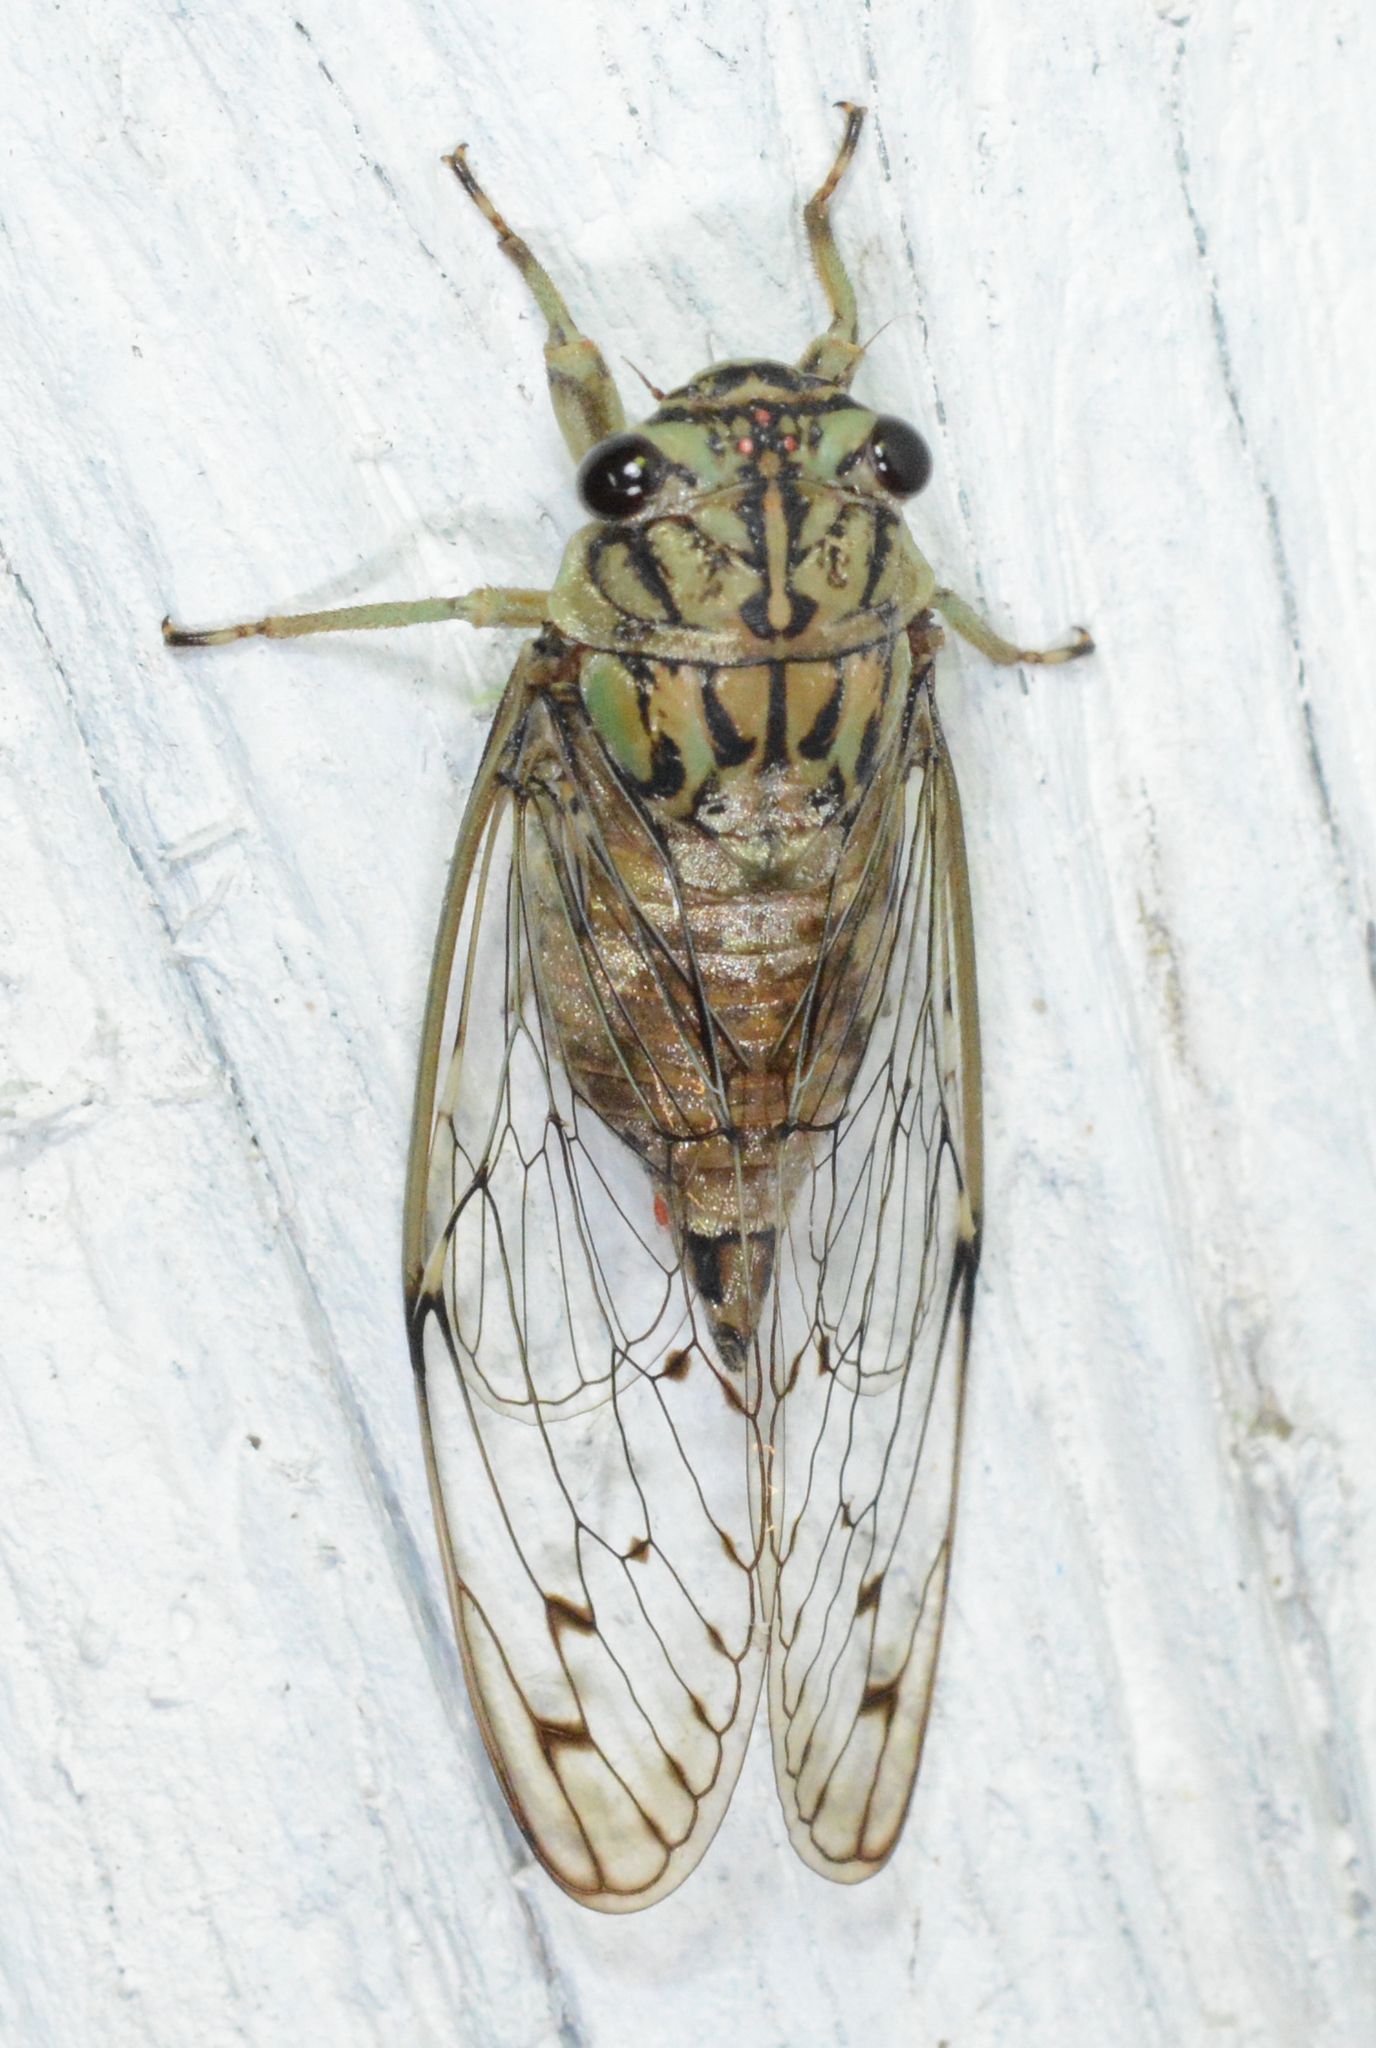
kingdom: Animalia
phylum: Arthropoda
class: Insecta
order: Hemiptera
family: Cicadidae
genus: Neocicada
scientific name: Neocicada hieroglyphica
